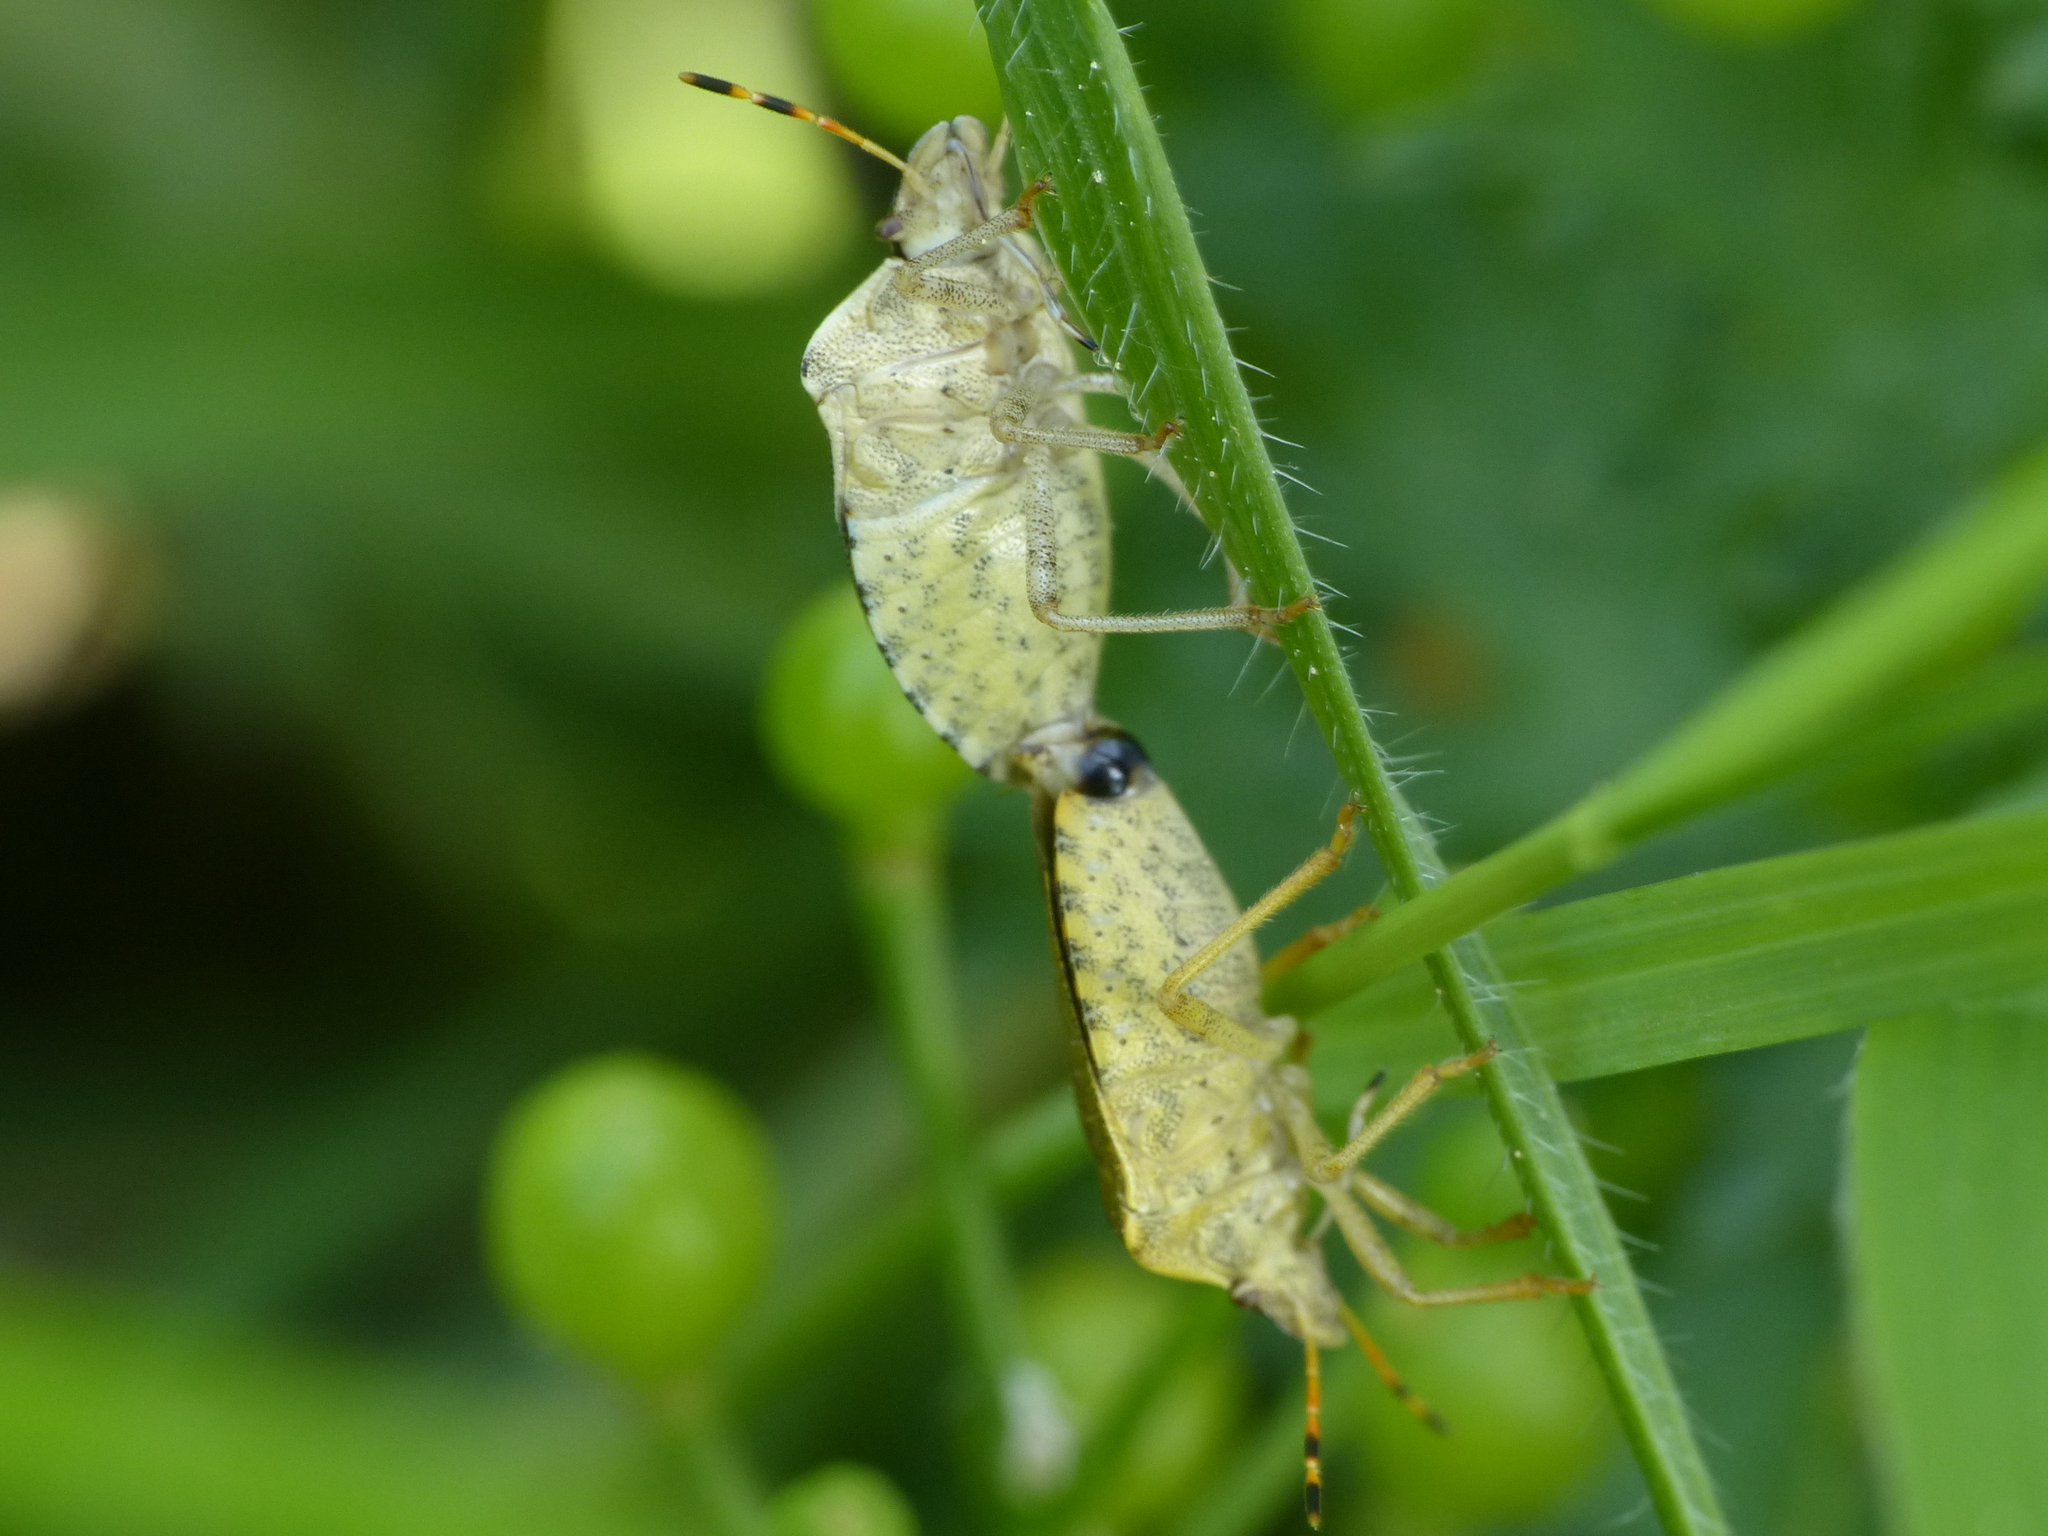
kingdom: Animalia
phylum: Arthropoda
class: Insecta
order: Hemiptera
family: Pentatomidae
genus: Holcostethus
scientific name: Holcostethus strictus
